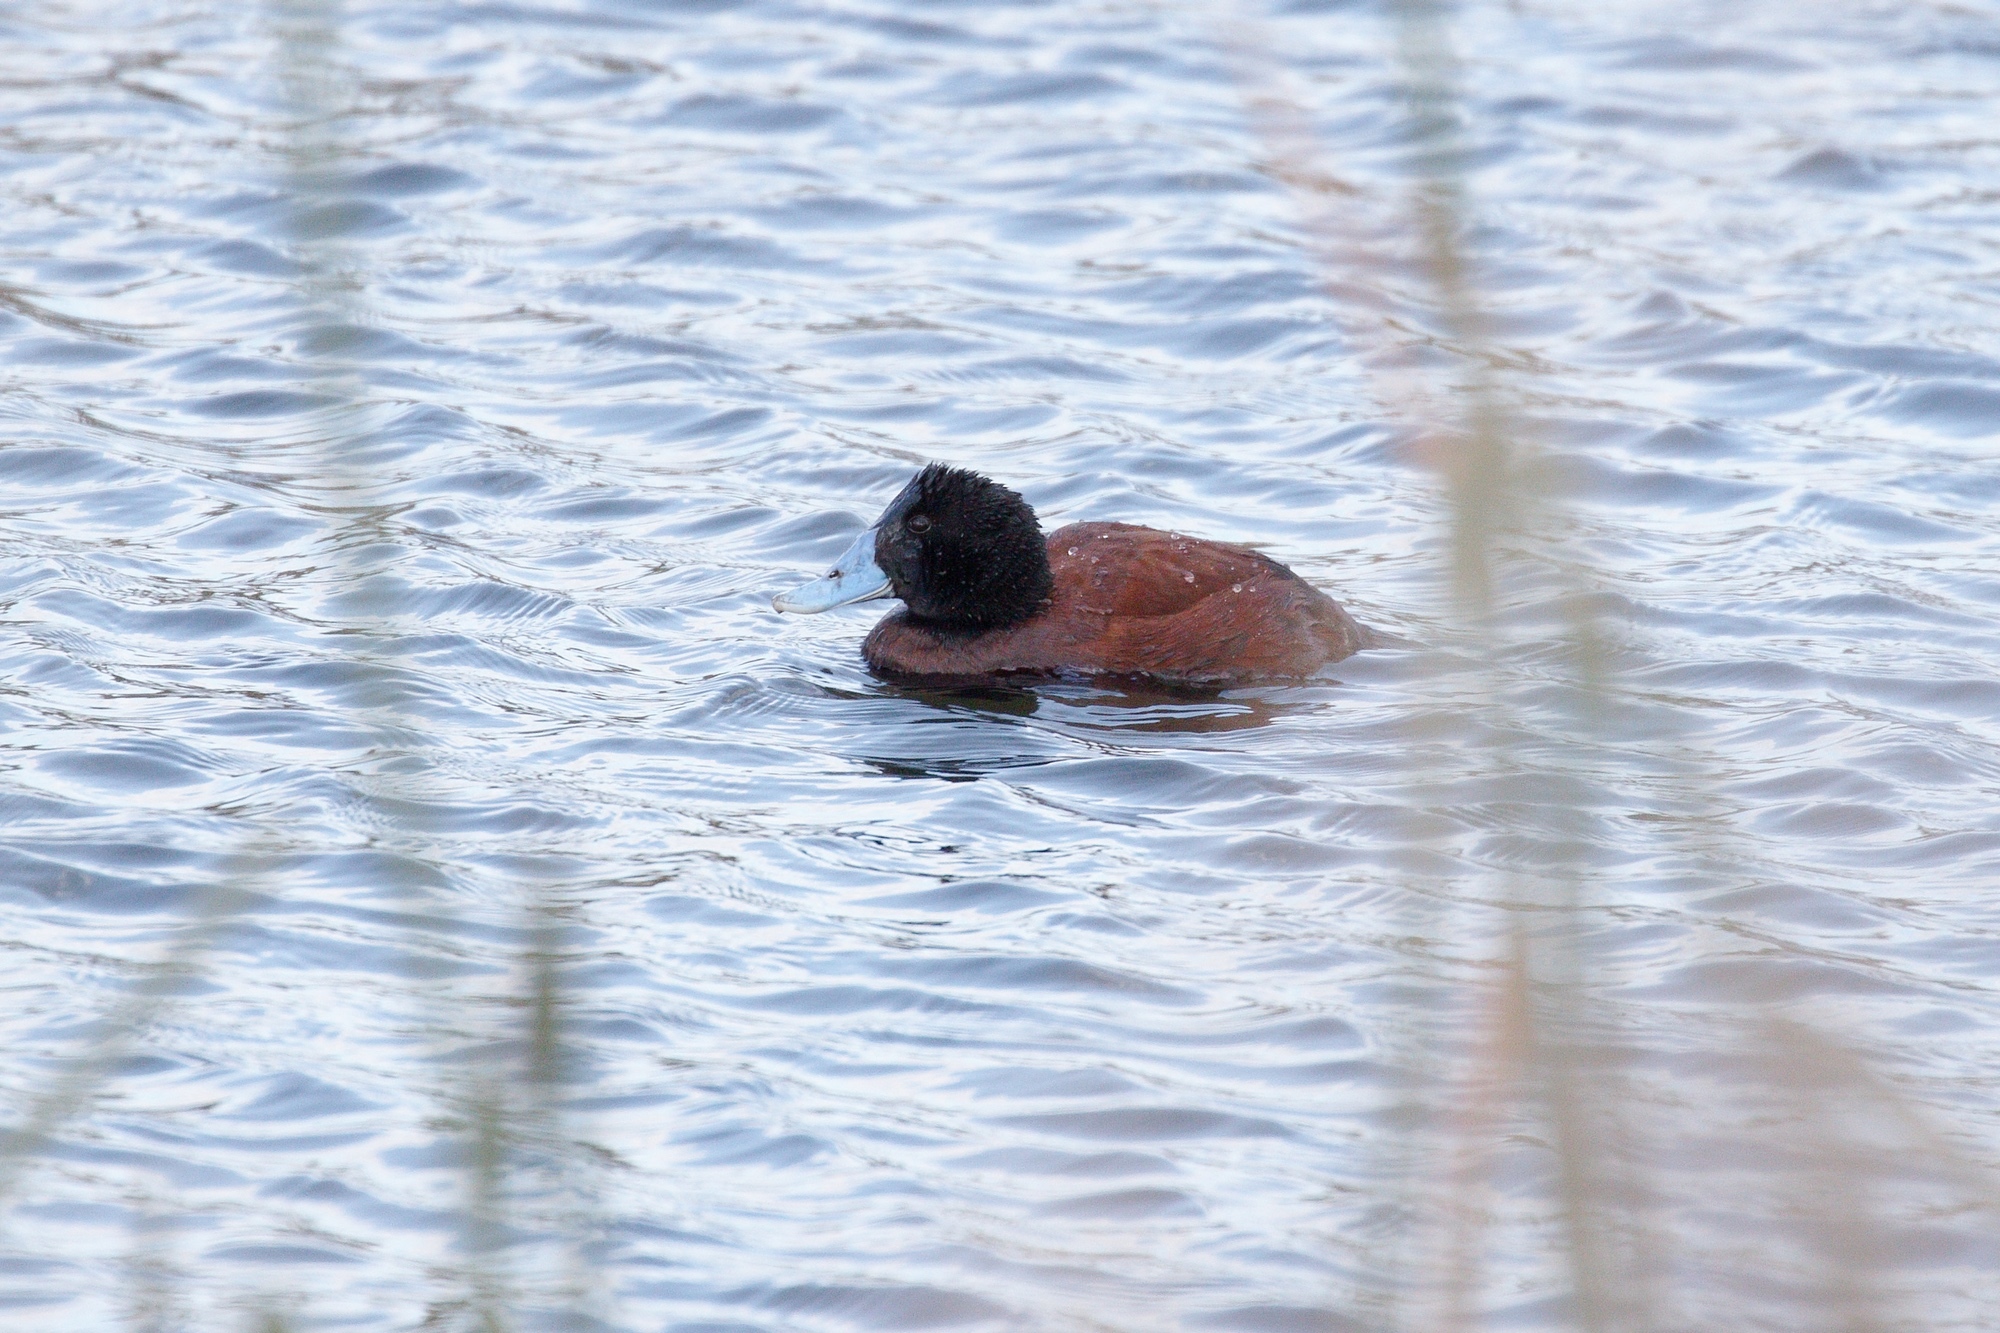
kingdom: Animalia
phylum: Chordata
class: Aves
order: Anseriformes
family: Anatidae
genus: Oxyura
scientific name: Oxyura australis
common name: Blue-billed duck
